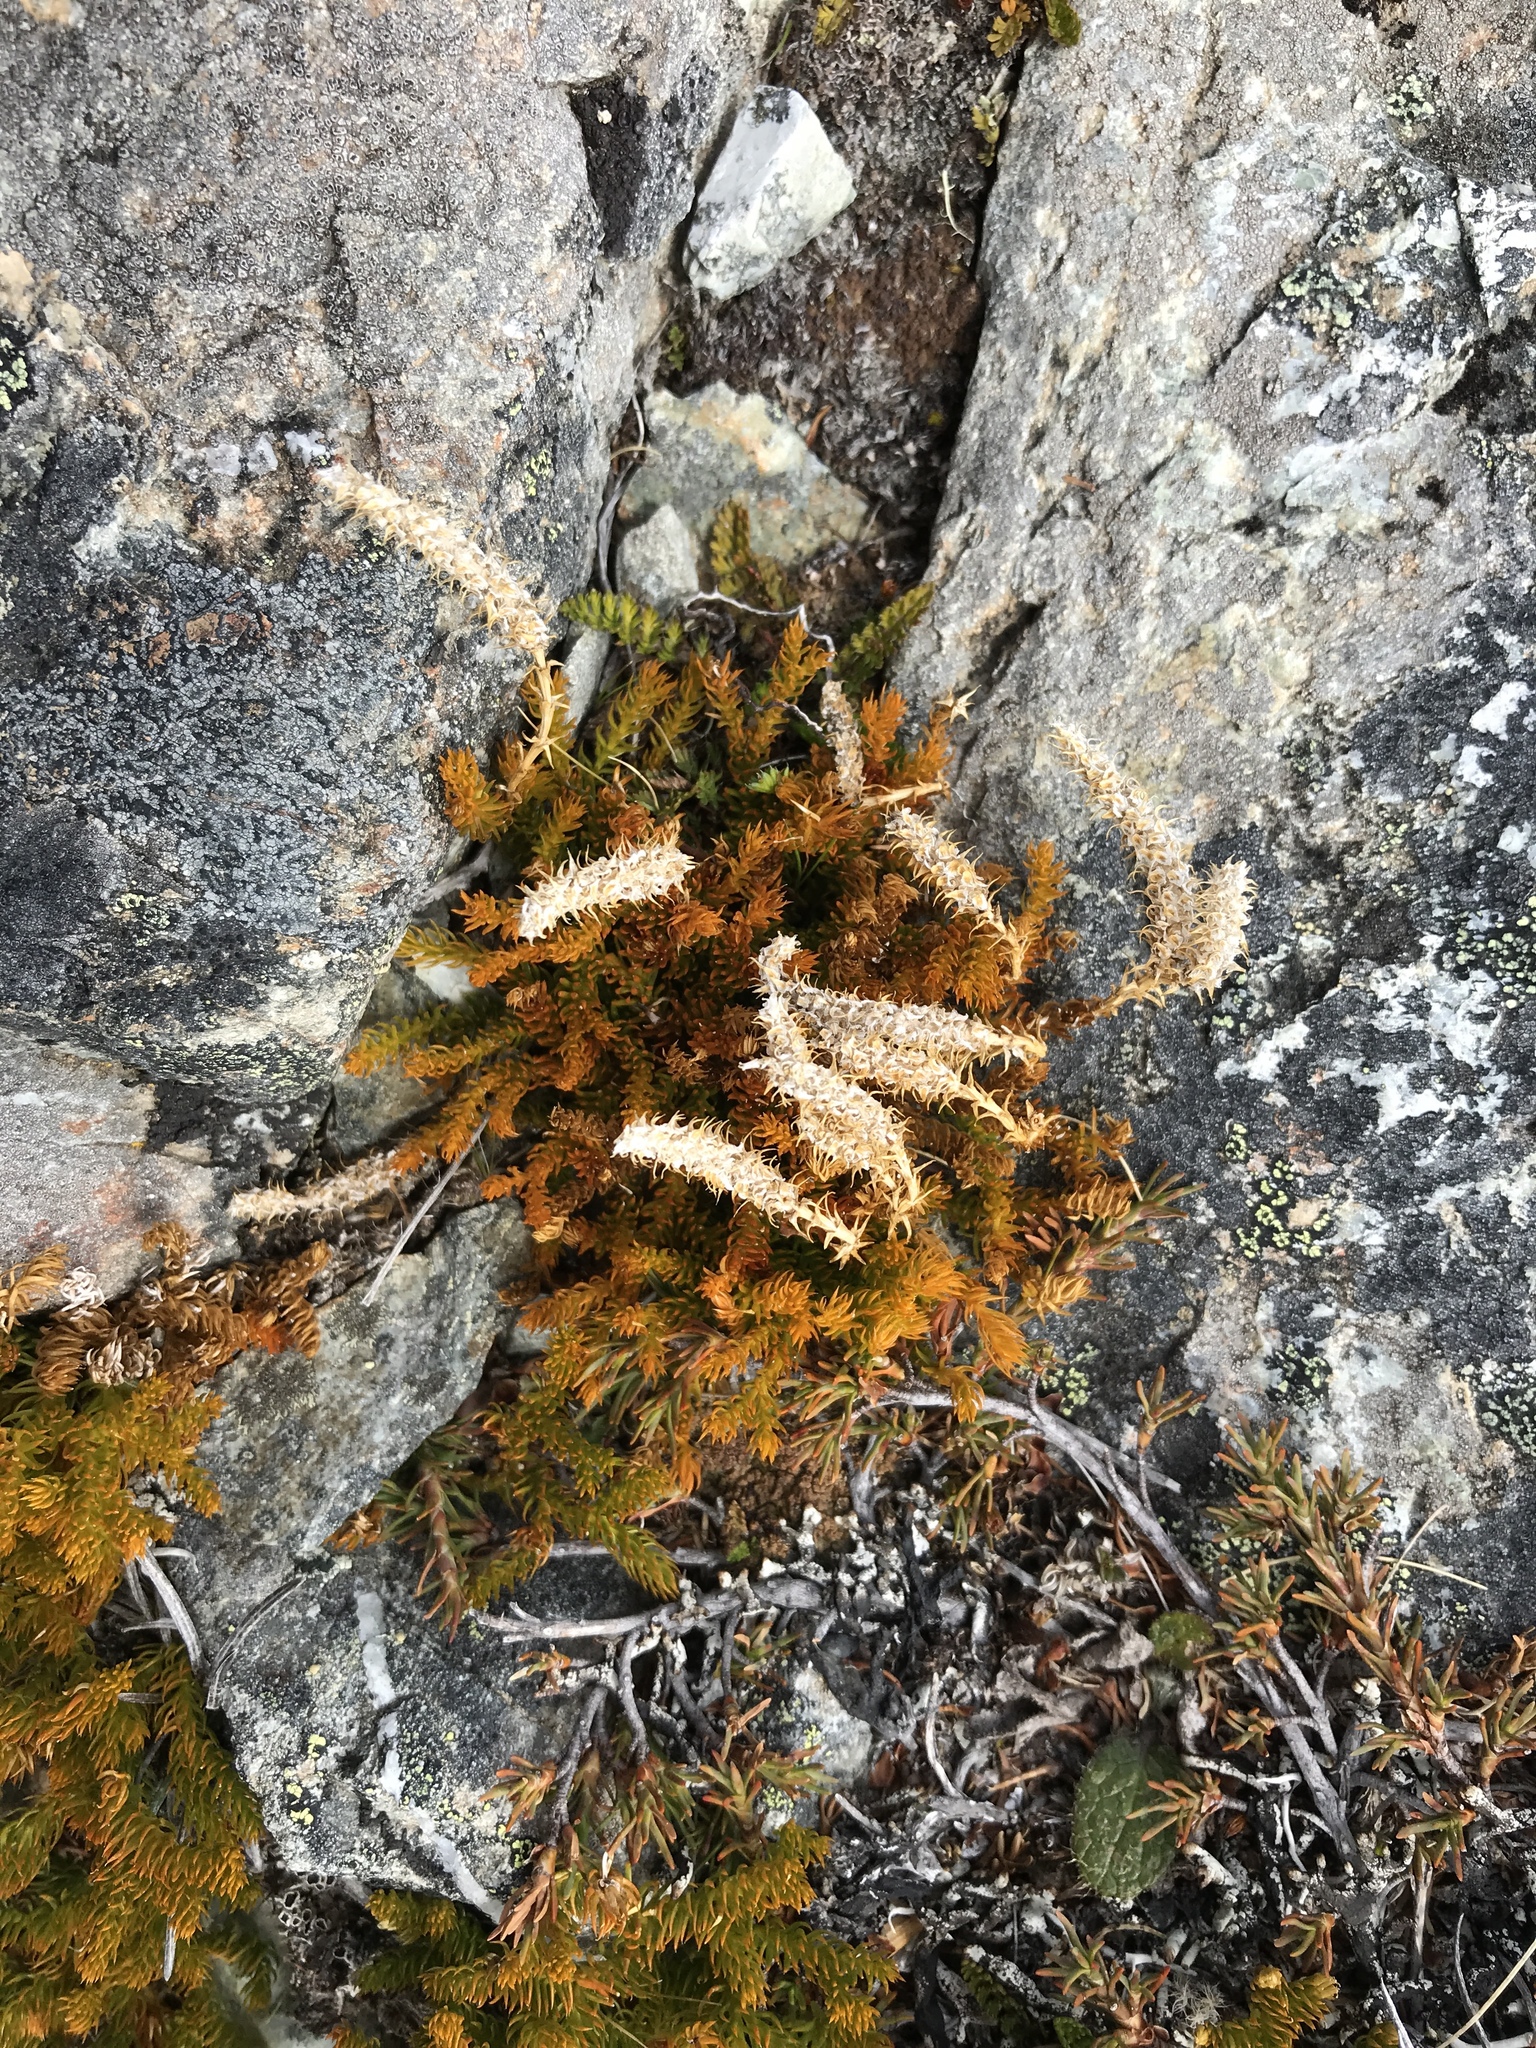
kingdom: Plantae
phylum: Tracheophyta
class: Lycopodiopsida
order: Lycopodiales
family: Lycopodiaceae
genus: Austrolycopodium
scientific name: Austrolycopodium fastigiatum
